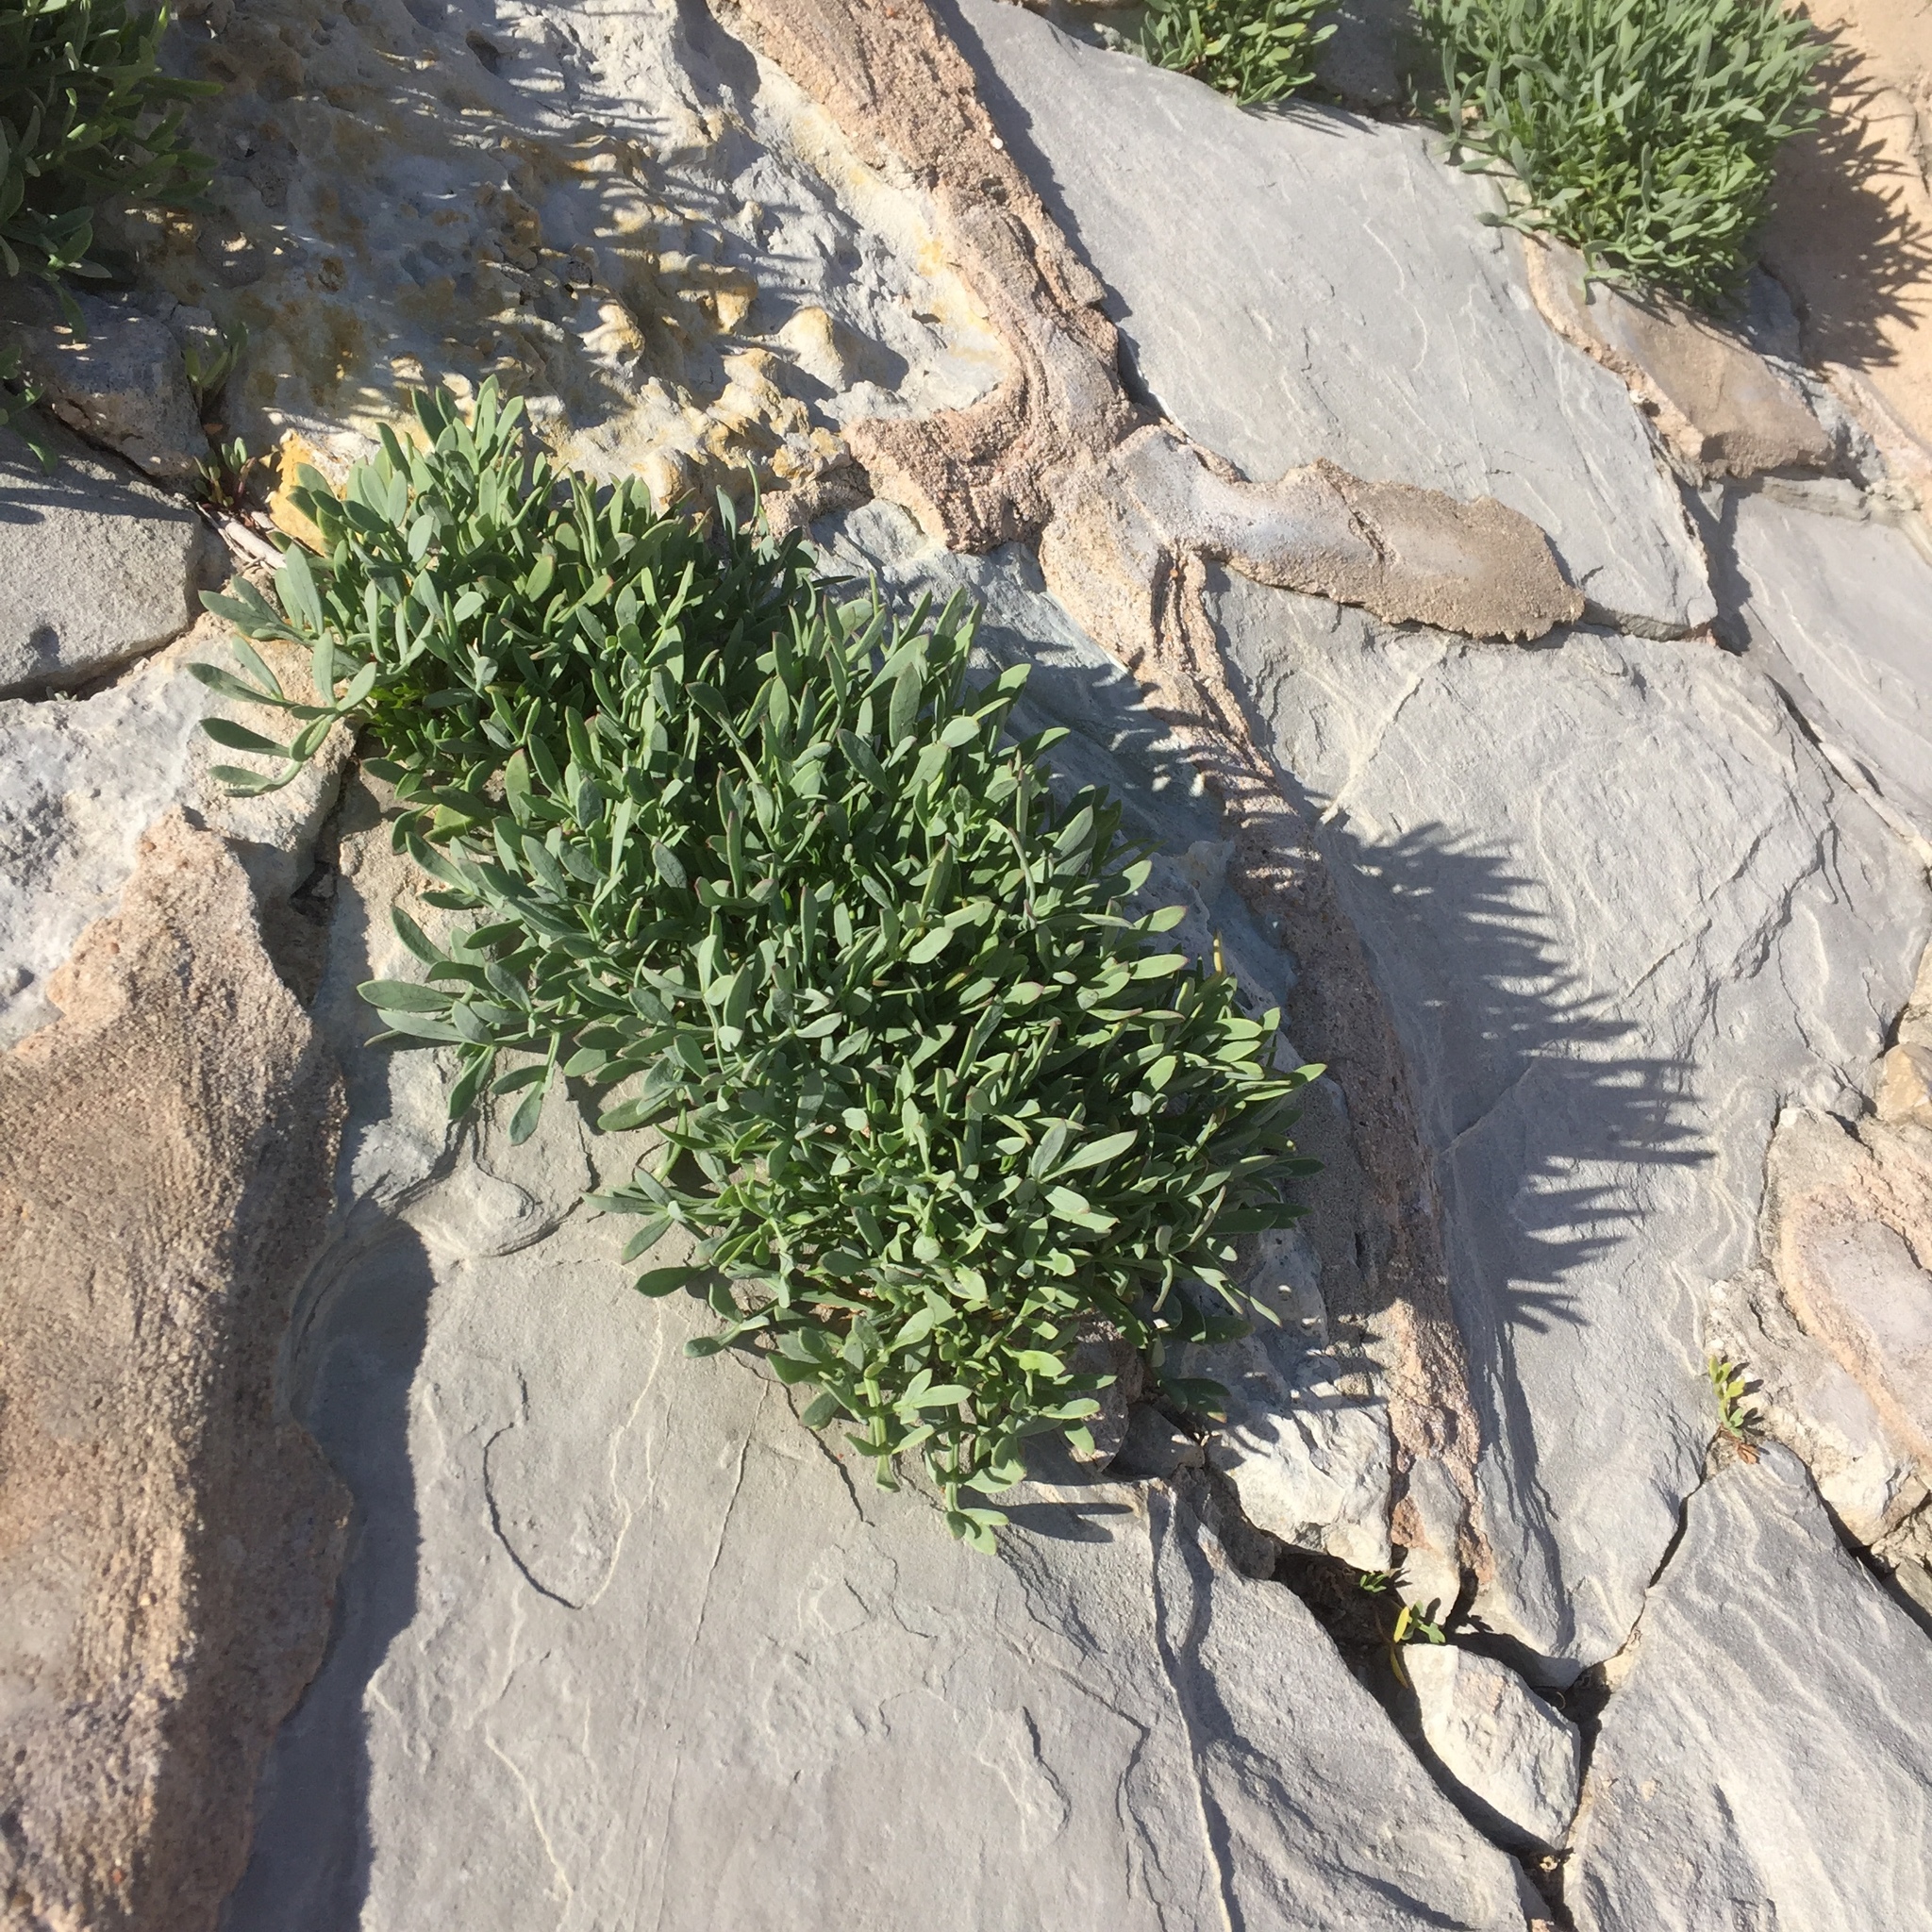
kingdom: Plantae
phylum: Tracheophyta
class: Magnoliopsida
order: Apiales
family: Apiaceae
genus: Crithmum
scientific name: Crithmum maritimum
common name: Rock samphire
